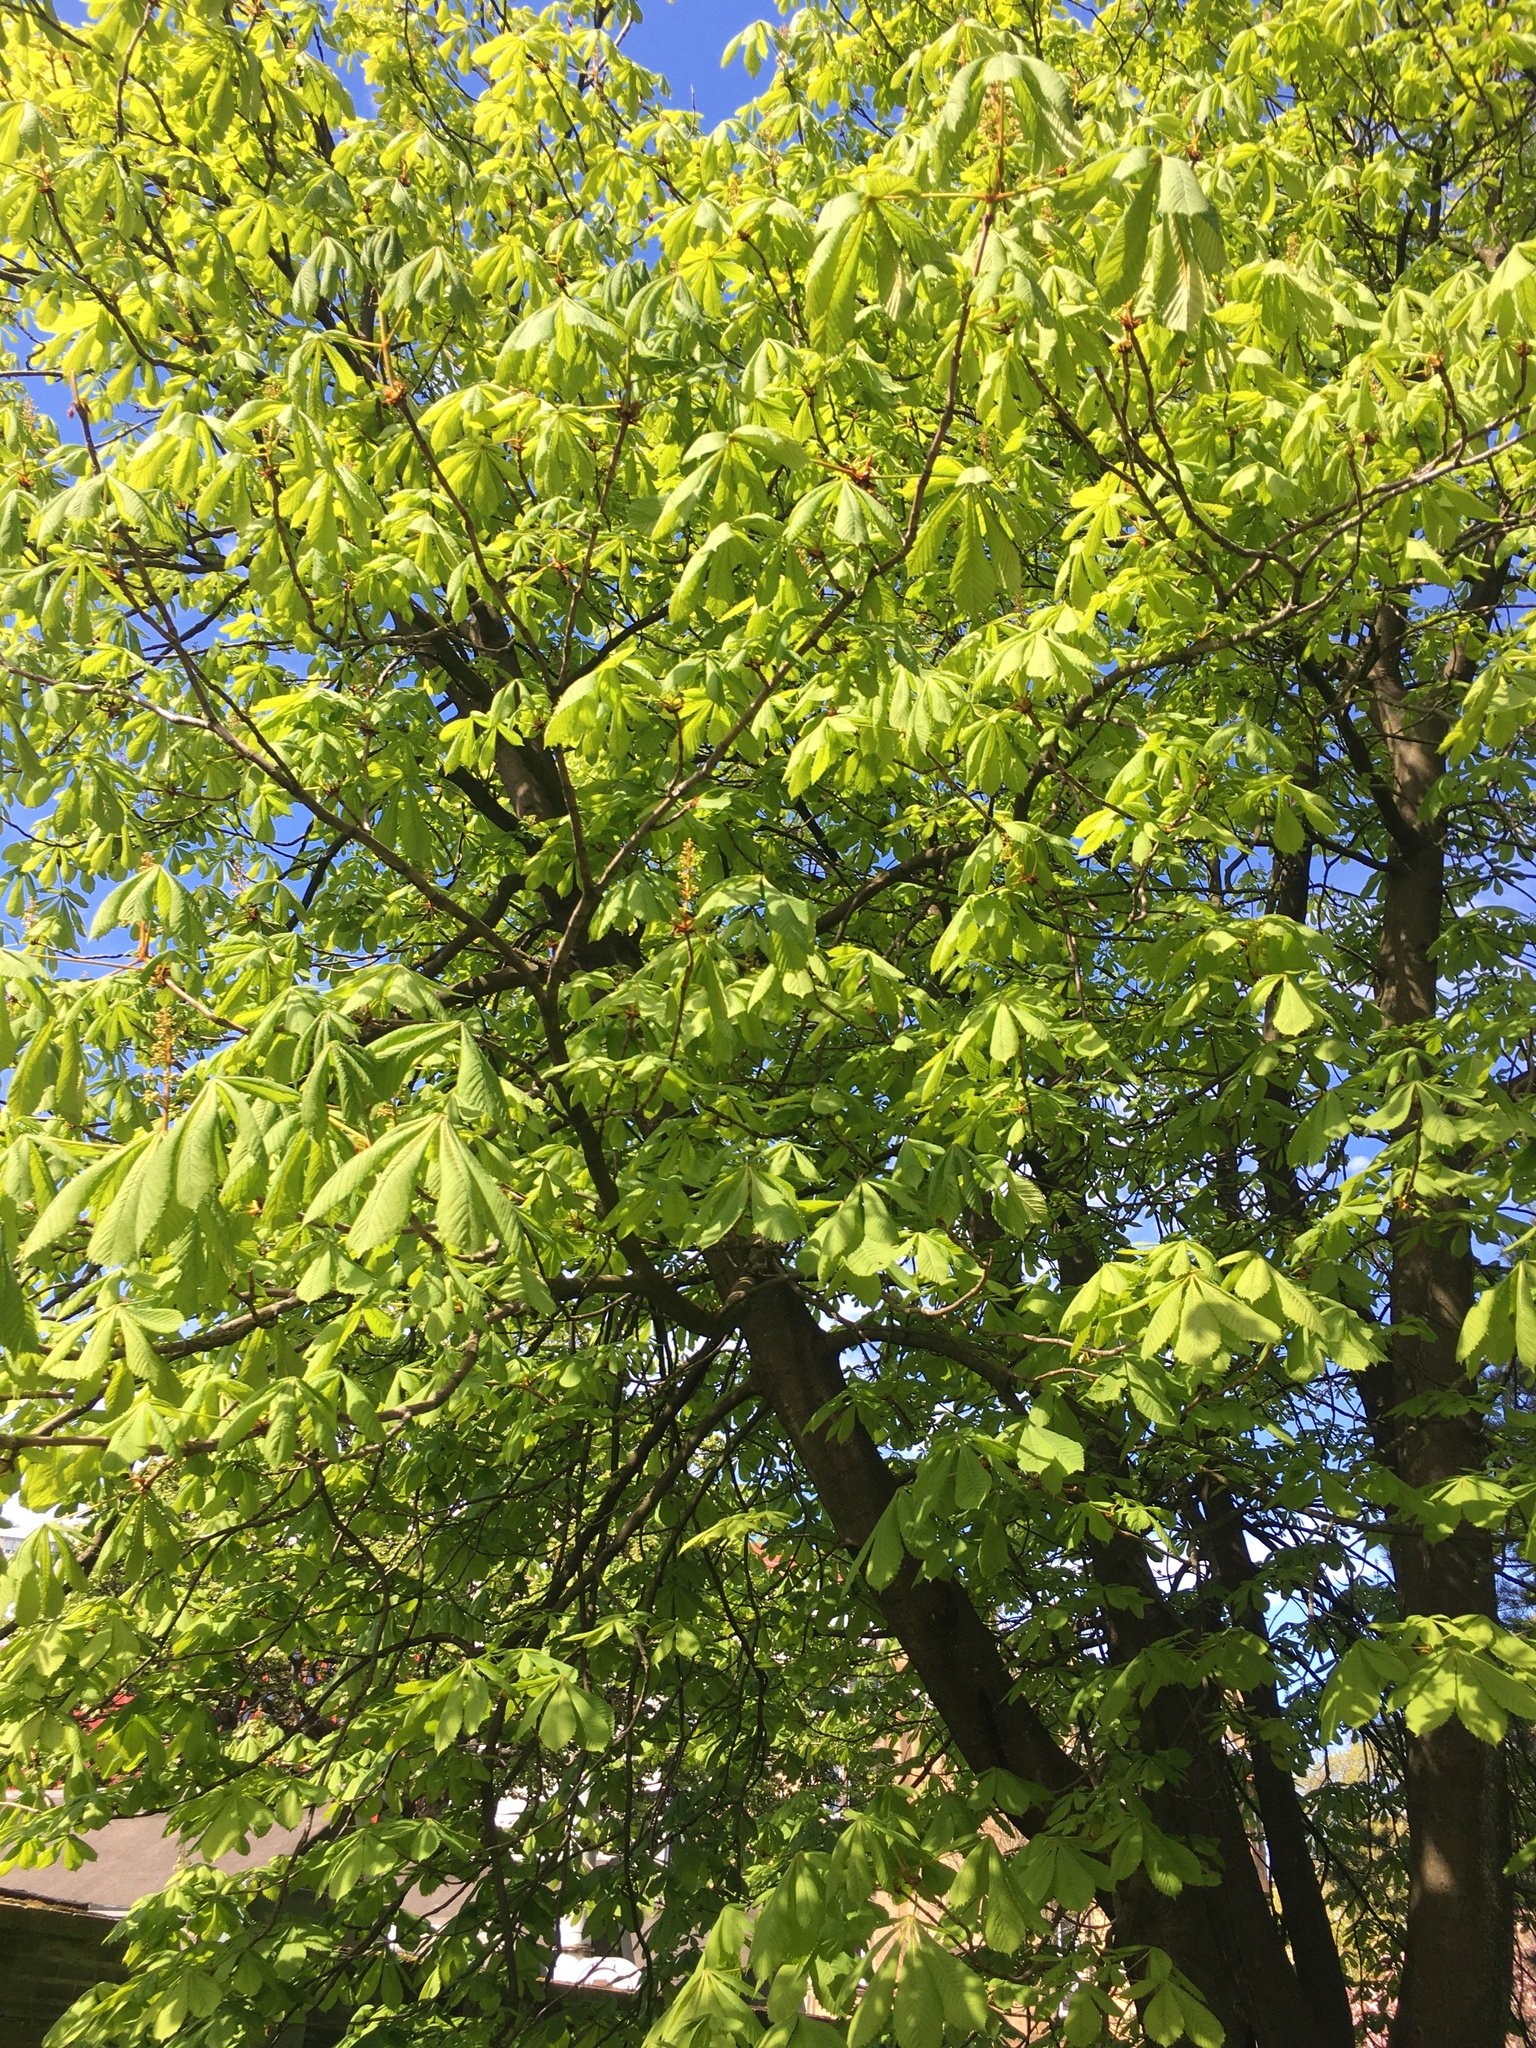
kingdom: Plantae
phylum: Tracheophyta
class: Magnoliopsida
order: Sapindales
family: Sapindaceae
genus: Aesculus
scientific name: Aesculus hippocastanum
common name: Horse-chestnut
